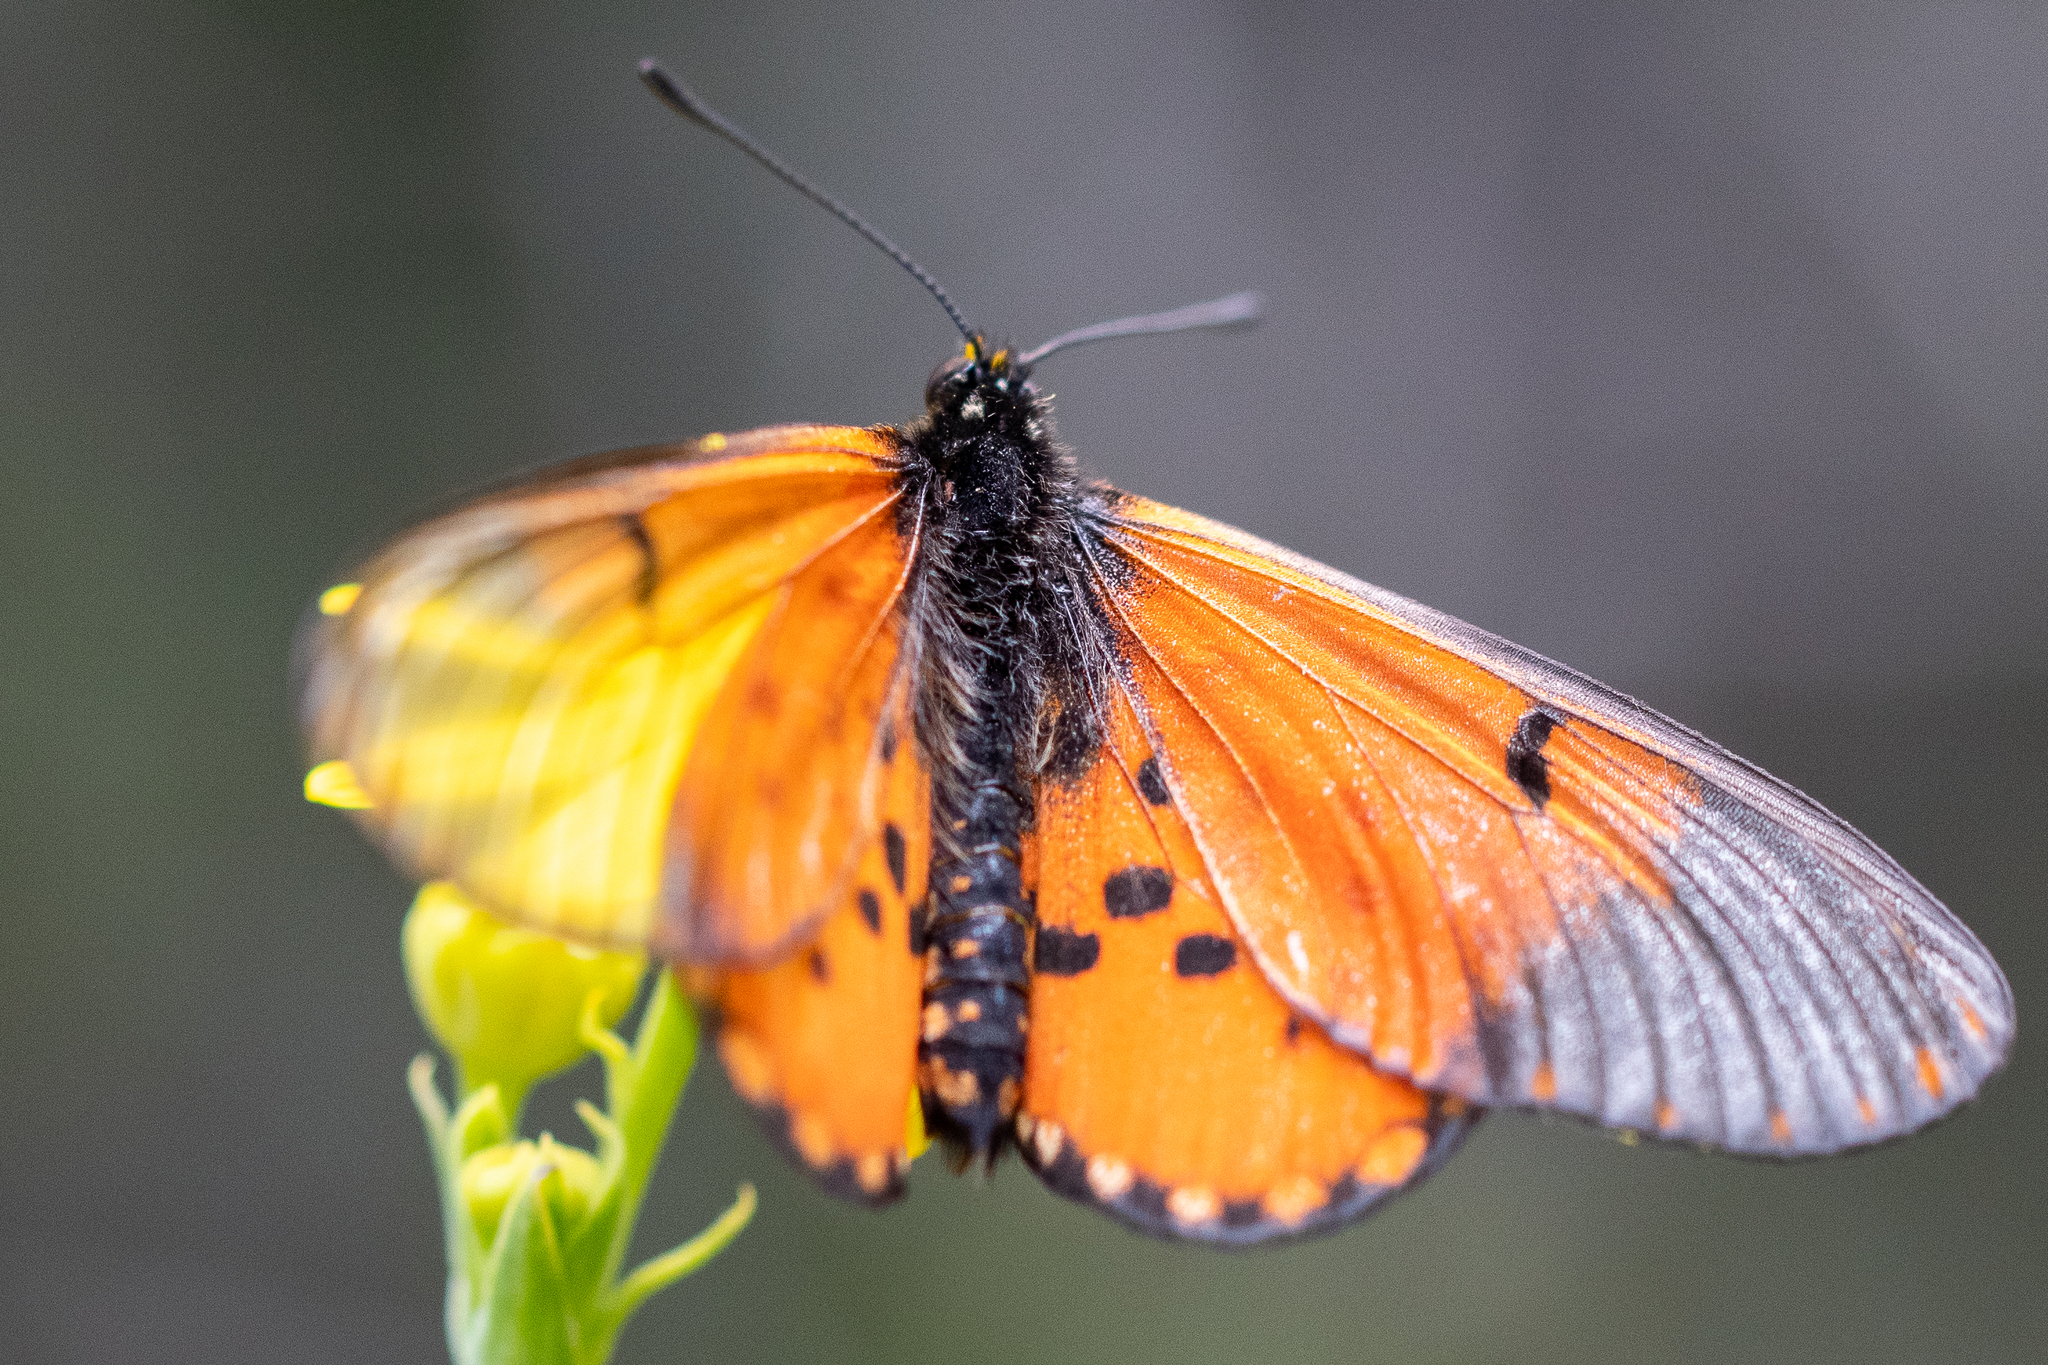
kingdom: Animalia
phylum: Arthropoda
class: Insecta
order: Lepidoptera
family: Nymphalidae
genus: Acraea
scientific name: Acraea horta
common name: Garden acraea
